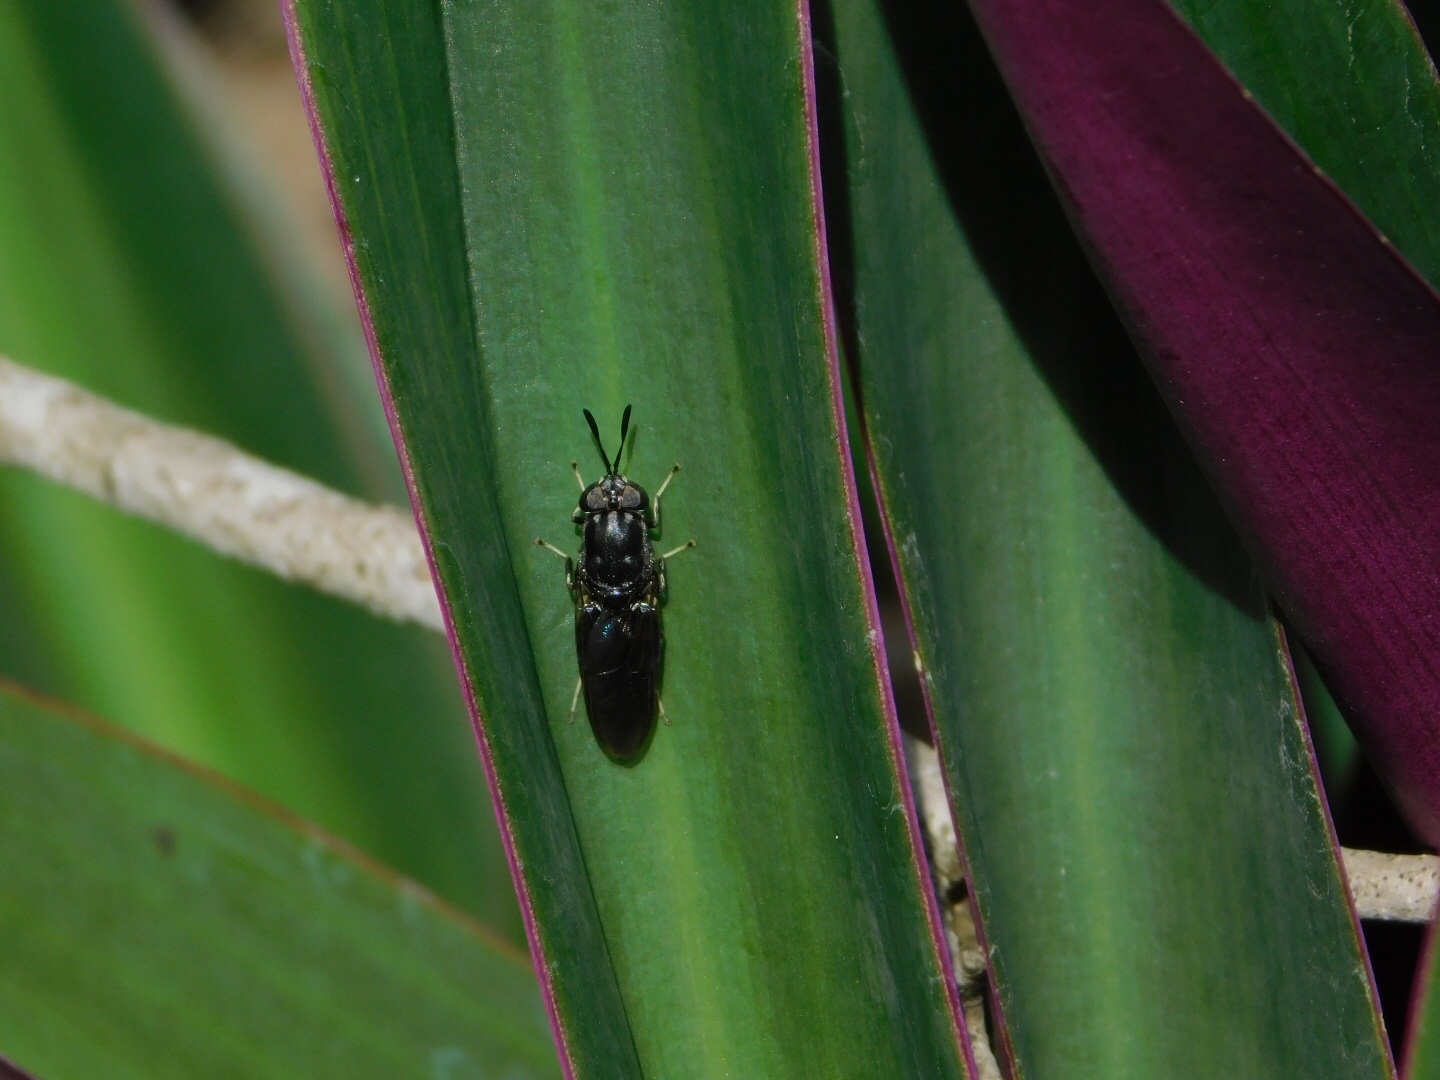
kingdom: Animalia
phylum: Arthropoda
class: Insecta
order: Diptera
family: Stratiomyidae
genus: Hermetia
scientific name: Hermetia sexmaculata
